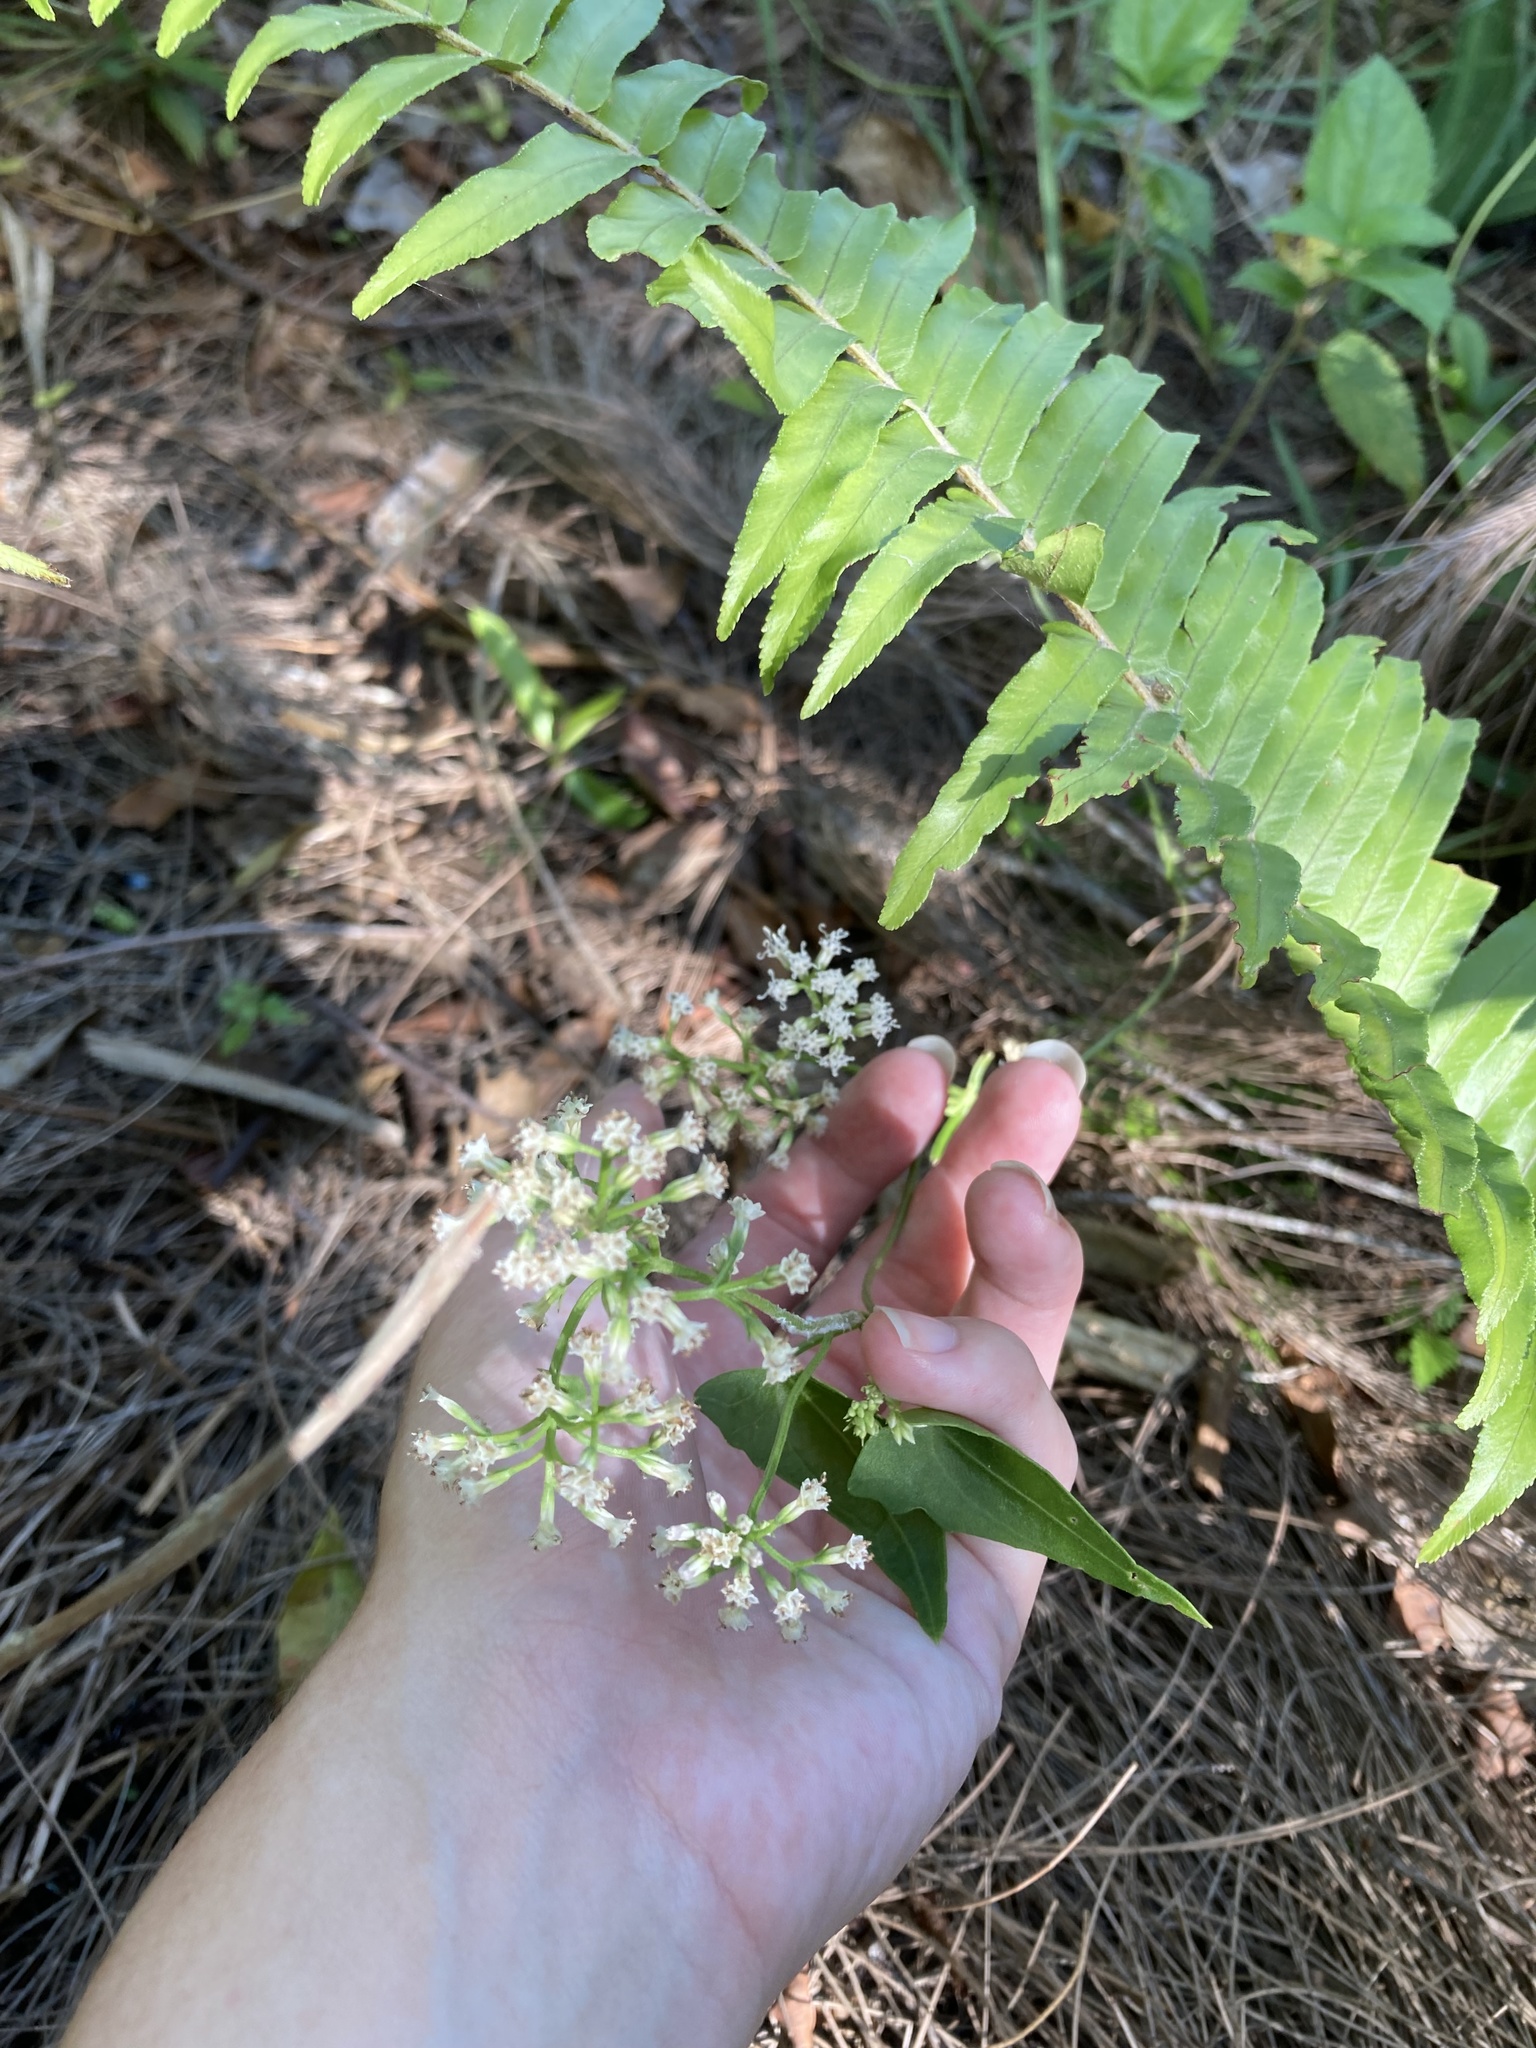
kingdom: Plantae
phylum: Tracheophyta
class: Magnoliopsida
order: Asterales
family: Asteraceae
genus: Mikania
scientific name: Mikania scandens
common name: Climbing hempvine
